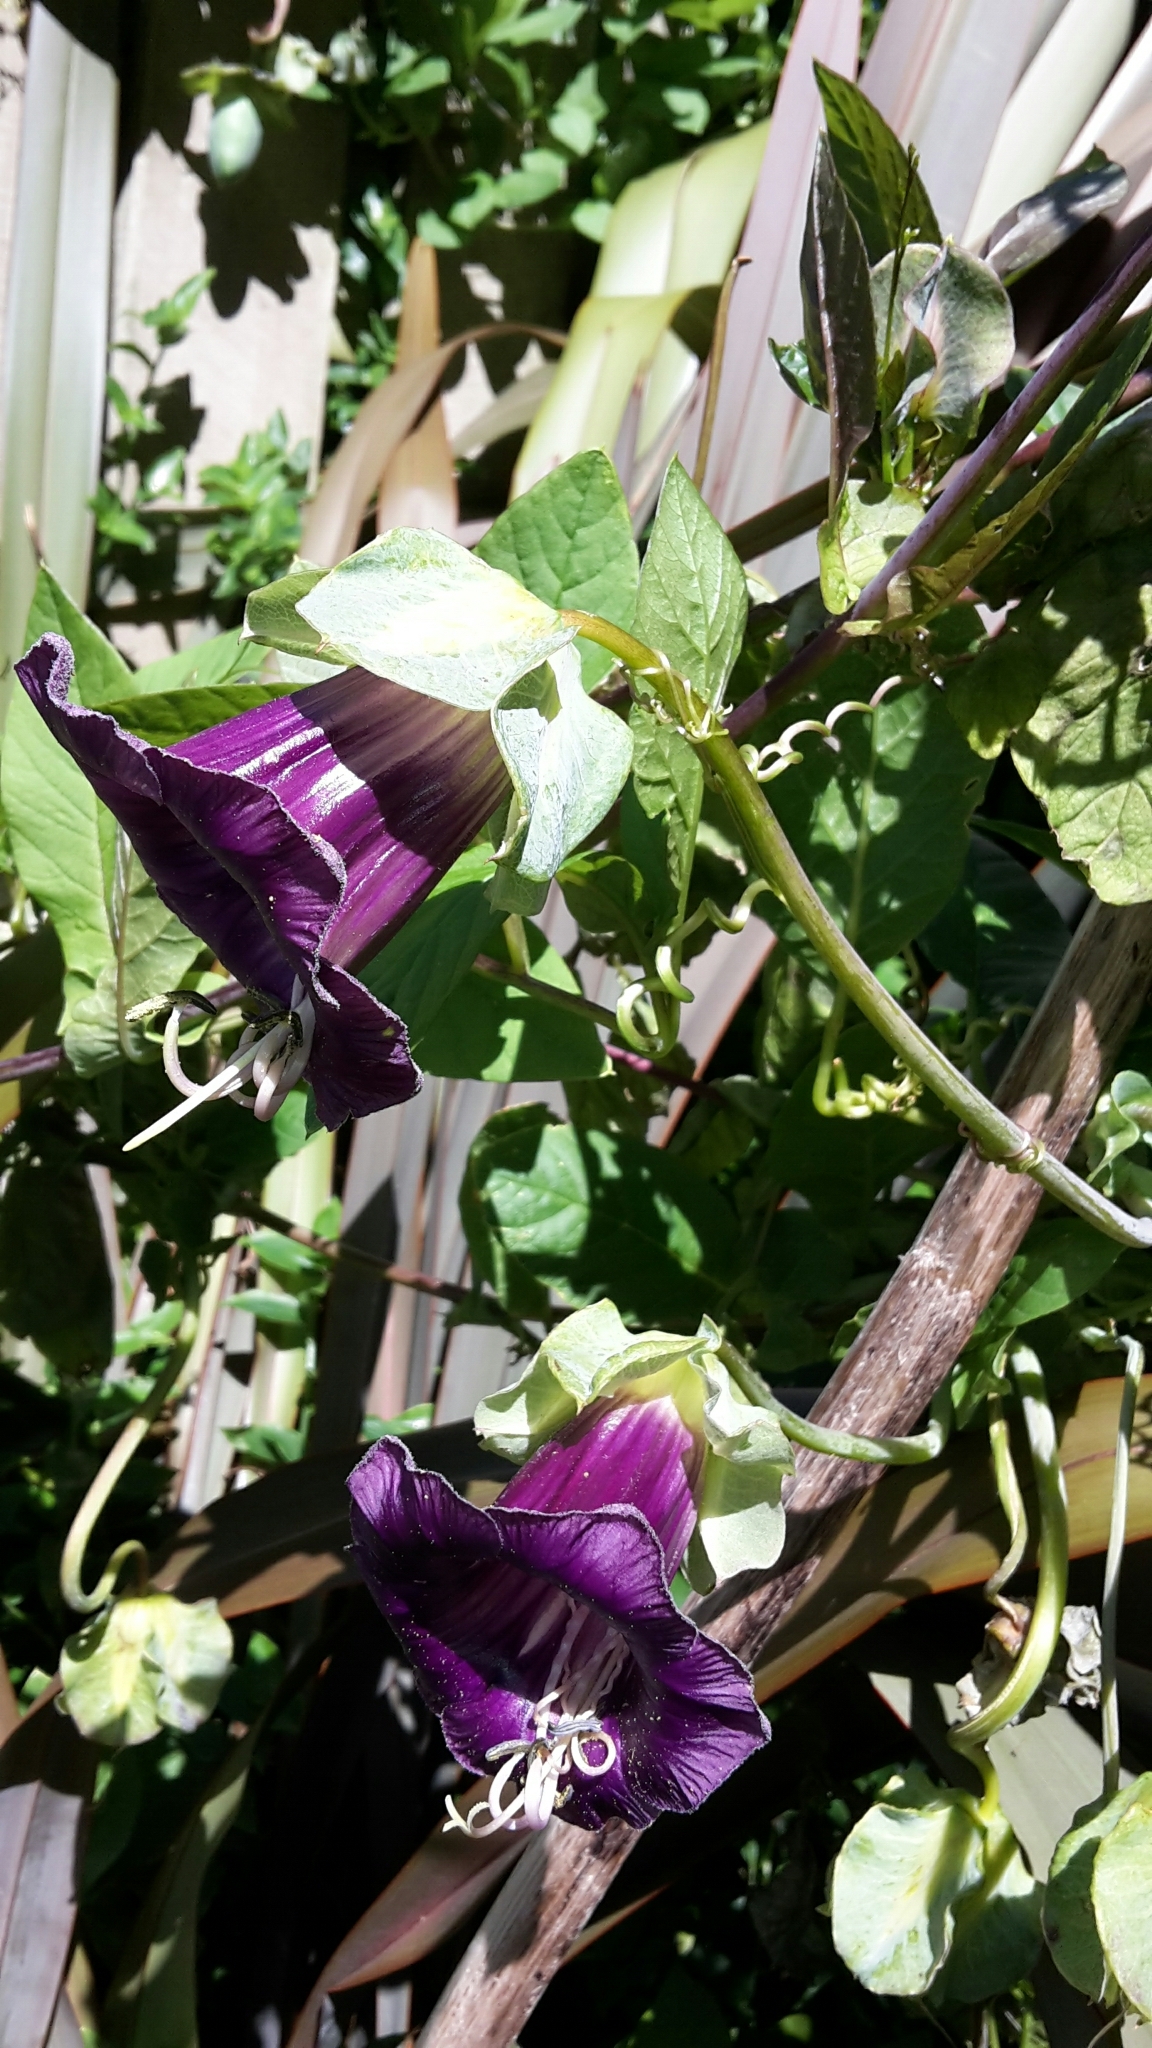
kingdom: Plantae
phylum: Tracheophyta
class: Magnoliopsida
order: Ericales
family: Polemoniaceae
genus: Cobaea
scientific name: Cobaea scandens
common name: Cup-and-saucer-vine
